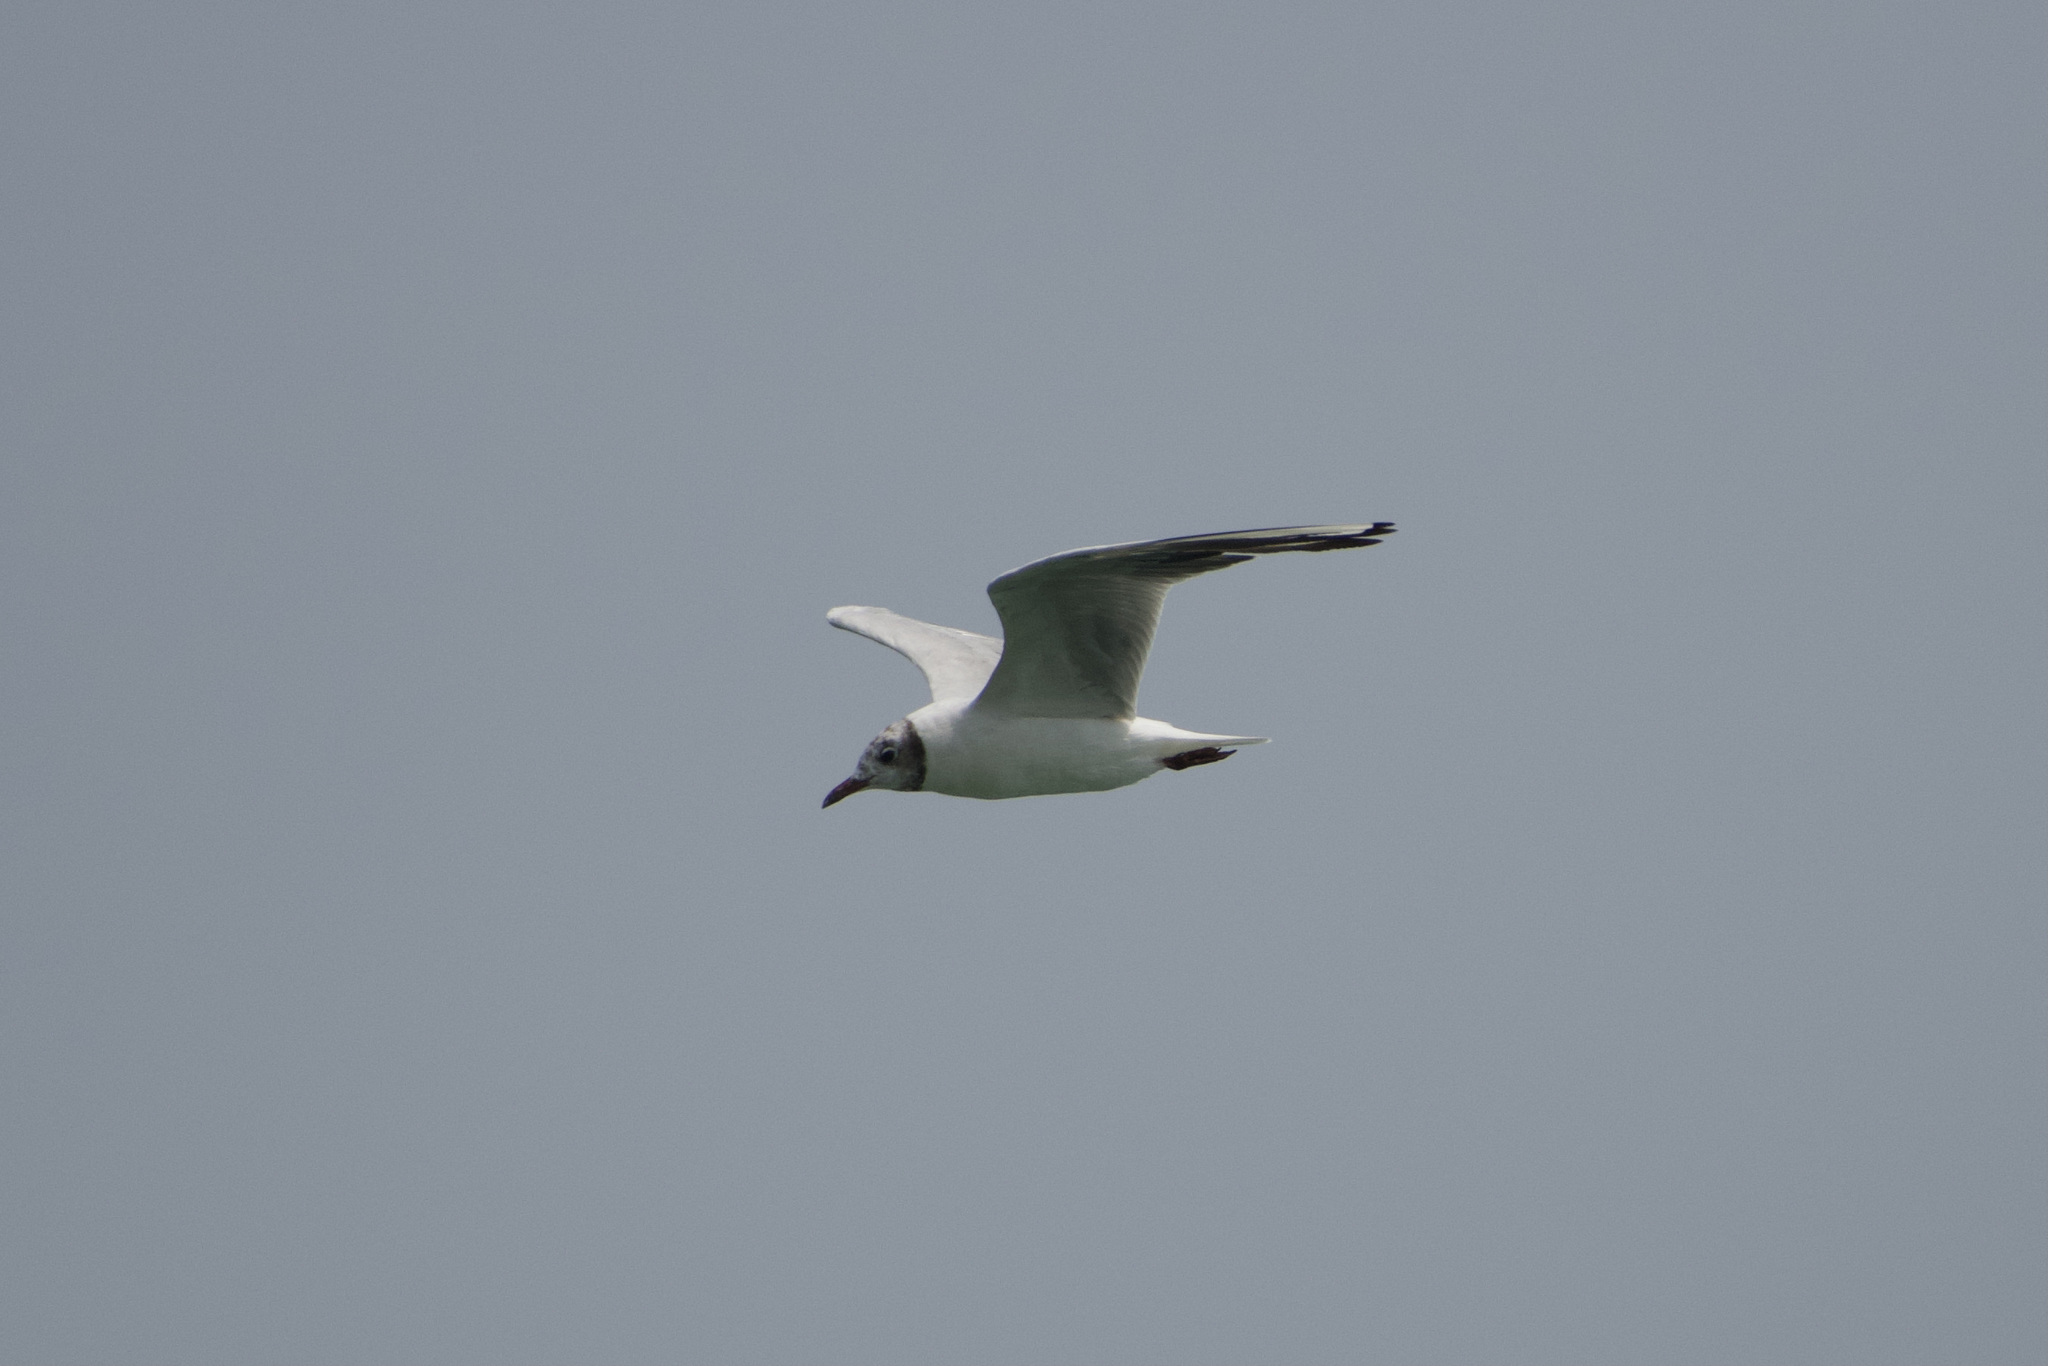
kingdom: Animalia
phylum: Chordata
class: Aves
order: Charadriiformes
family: Laridae
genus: Chroicocephalus
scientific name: Chroicocephalus ridibundus
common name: Black-headed gull
